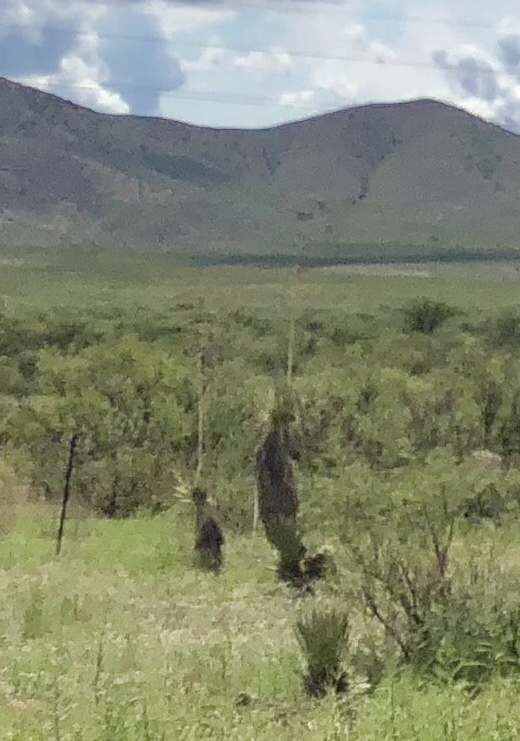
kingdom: Plantae
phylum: Tracheophyta
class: Liliopsida
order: Asparagales
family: Asparagaceae
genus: Yucca
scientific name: Yucca elata
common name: Palmella
